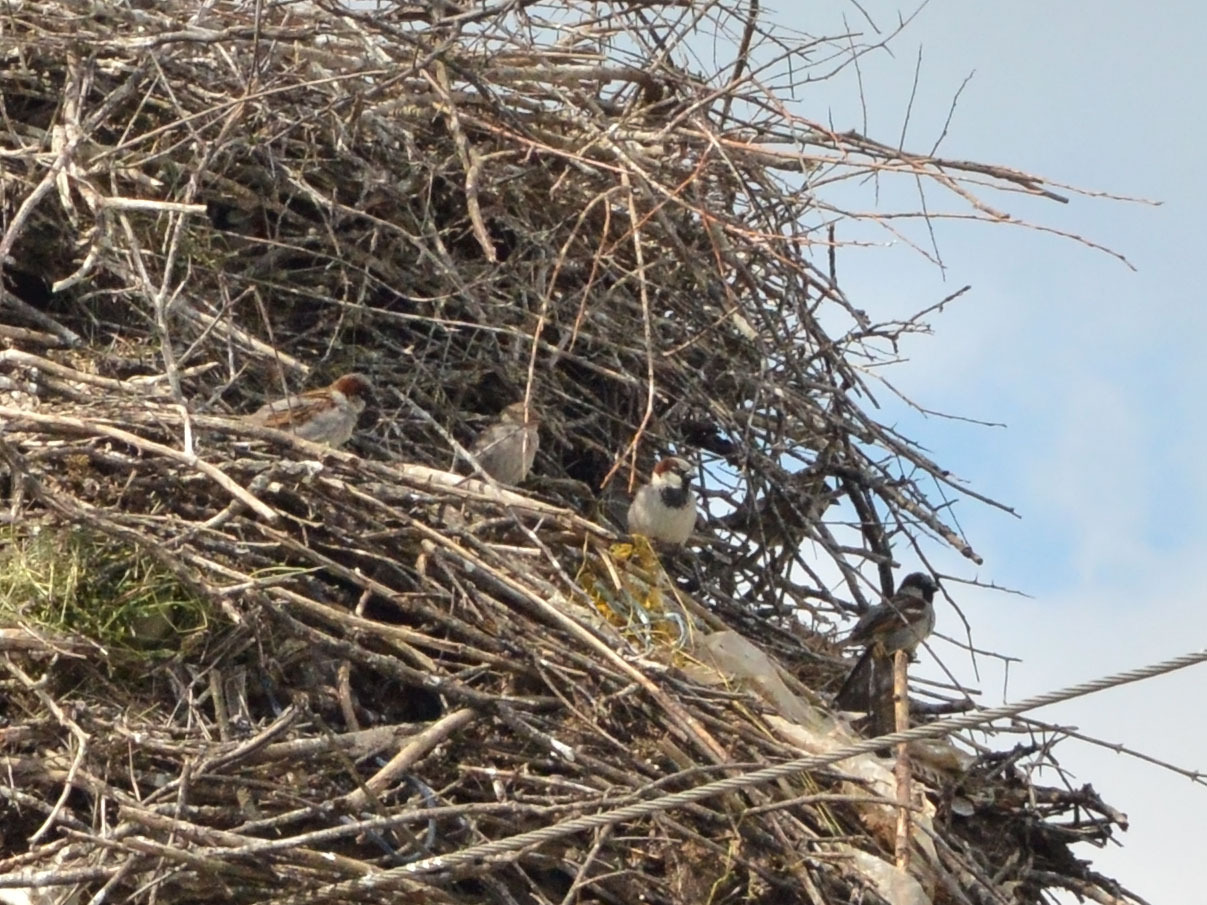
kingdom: Animalia
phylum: Chordata
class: Aves
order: Passeriformes
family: Passeridae
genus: Passer
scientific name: Passer domesticus
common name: House sparrow
